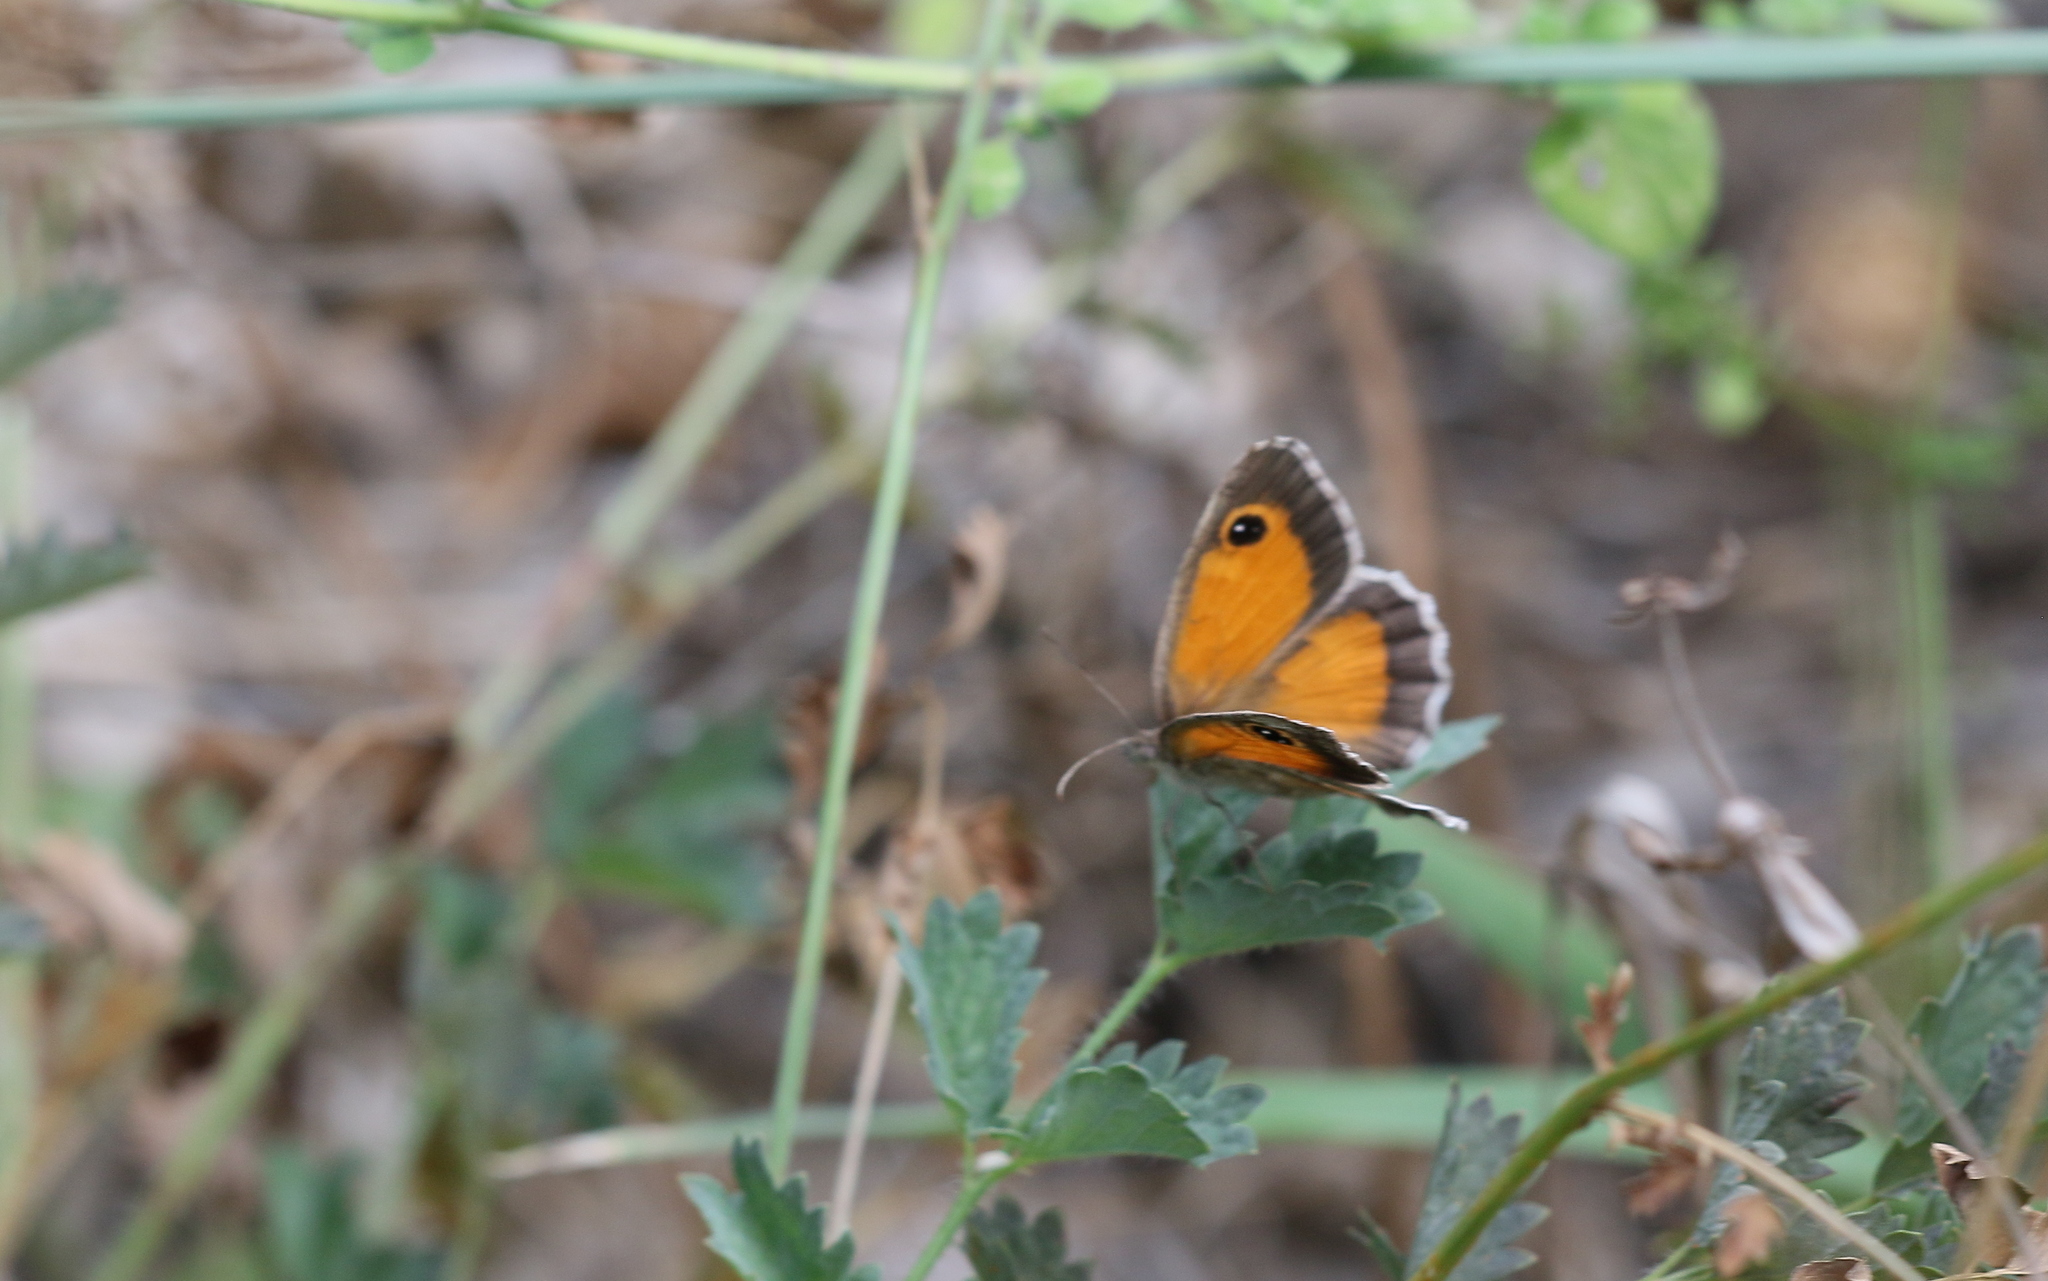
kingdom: Animalia
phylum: Arthropoda
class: Insecta
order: Lepidoptera
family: Nymphalidae
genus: Pyronia
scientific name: Pyronia cecilia
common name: Southern gatekeeper
